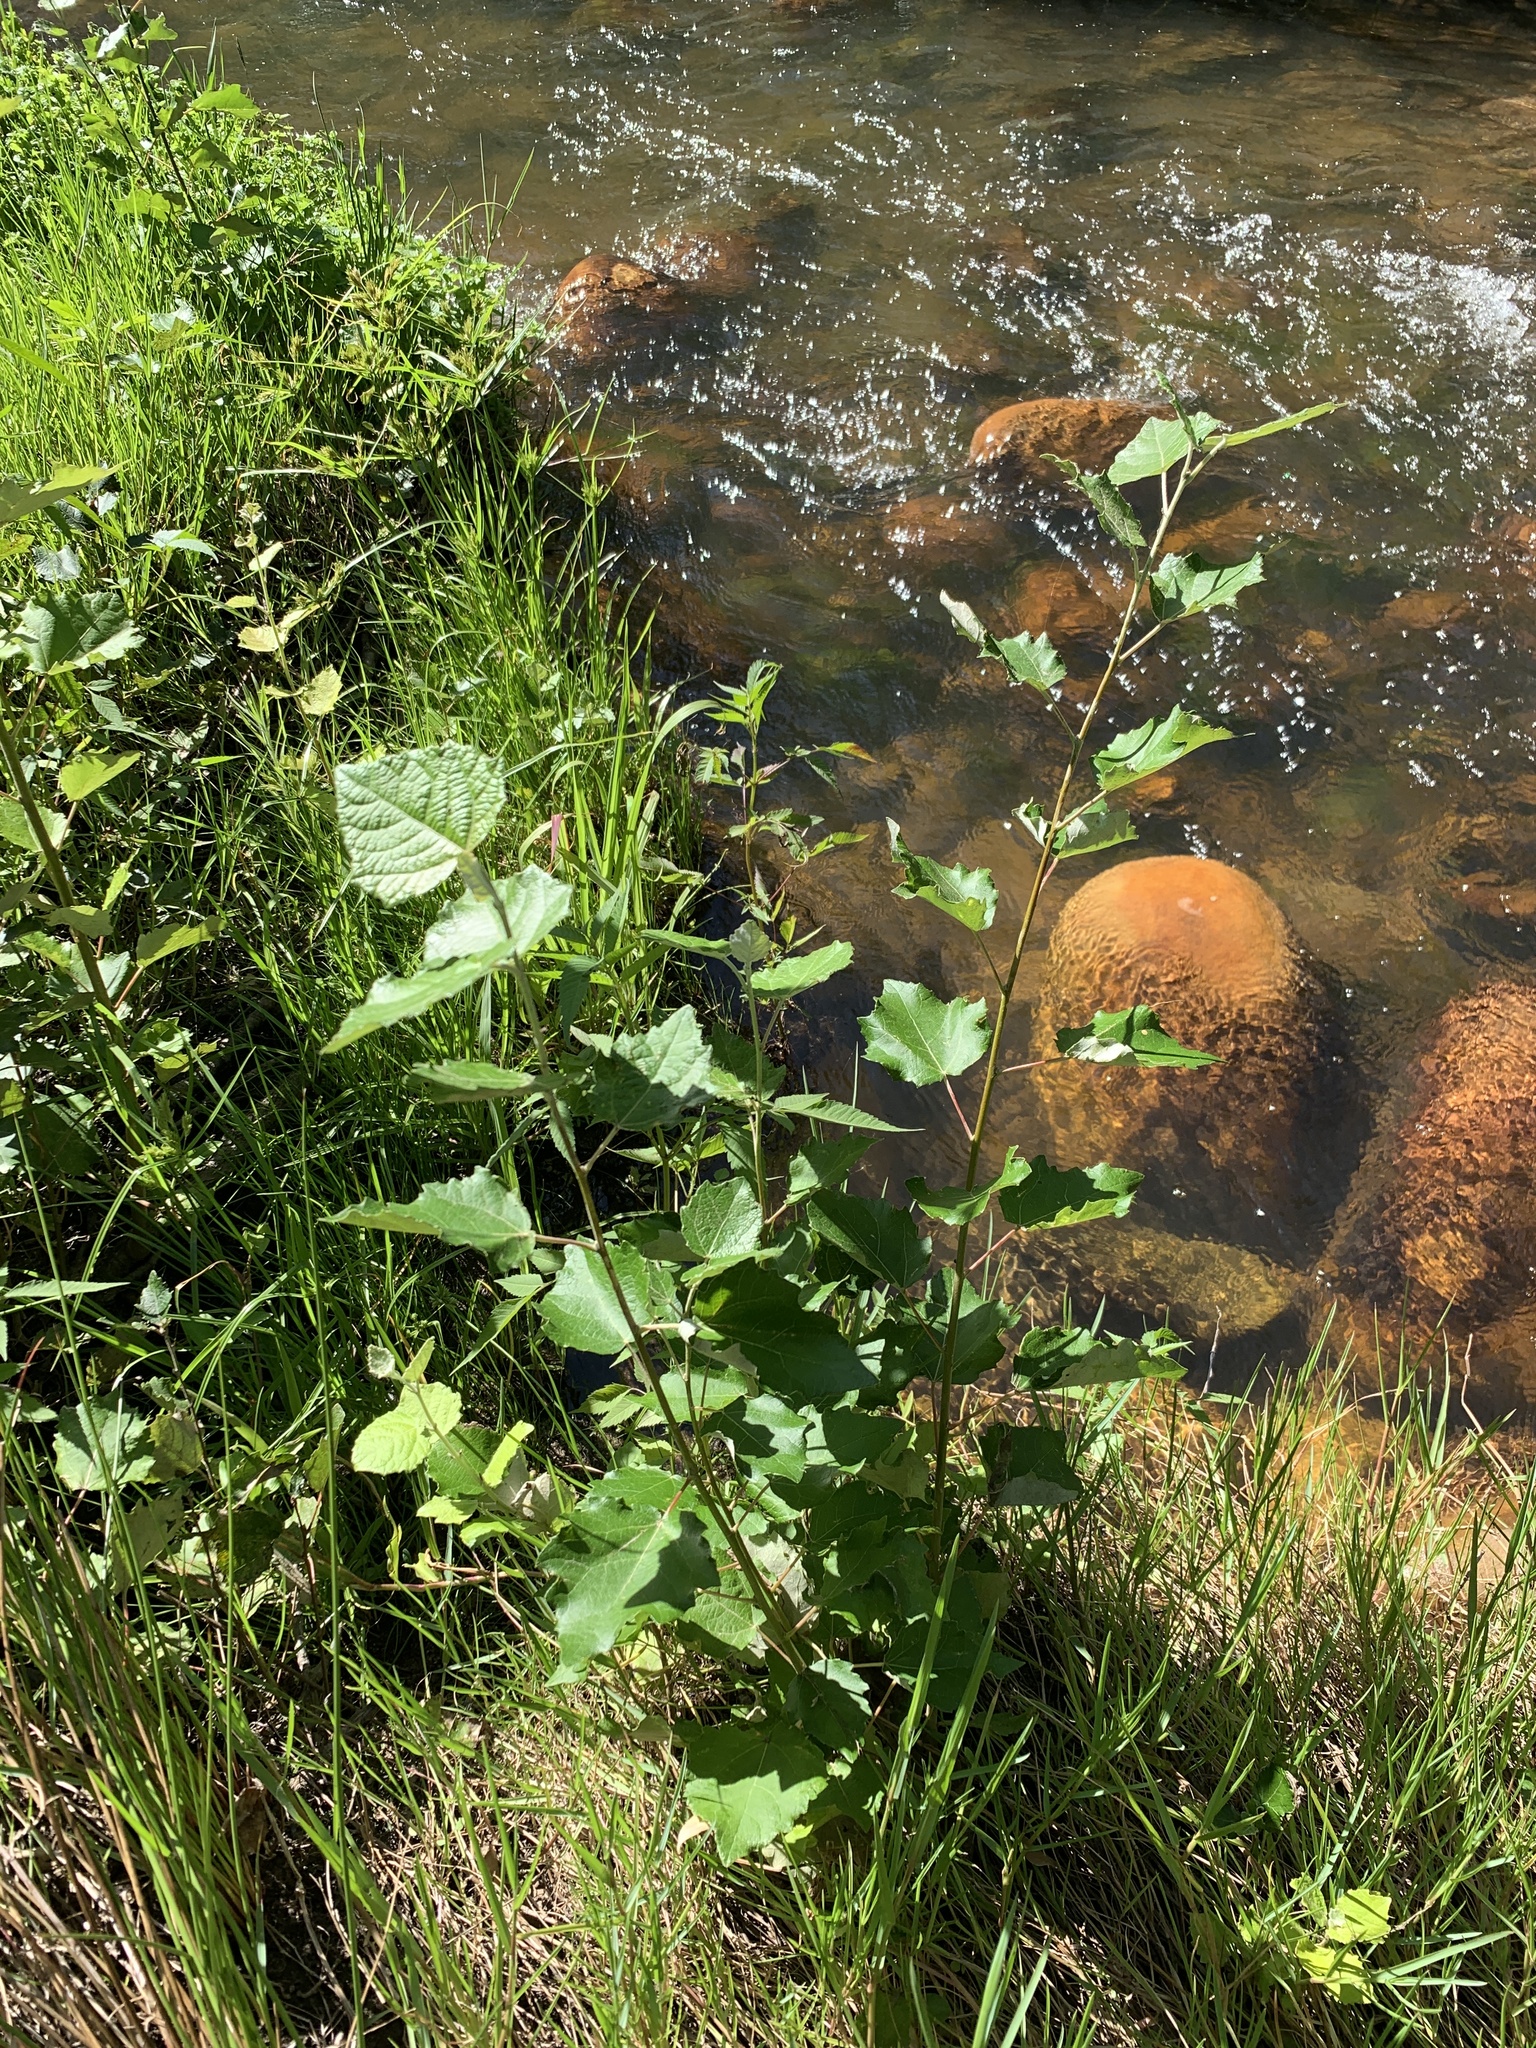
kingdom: Plantae
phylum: Tracheophyta
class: Magnoliopsida
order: Malpighiales
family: Salicaceae
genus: Populus
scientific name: Populus canescens
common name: Gray poplar
